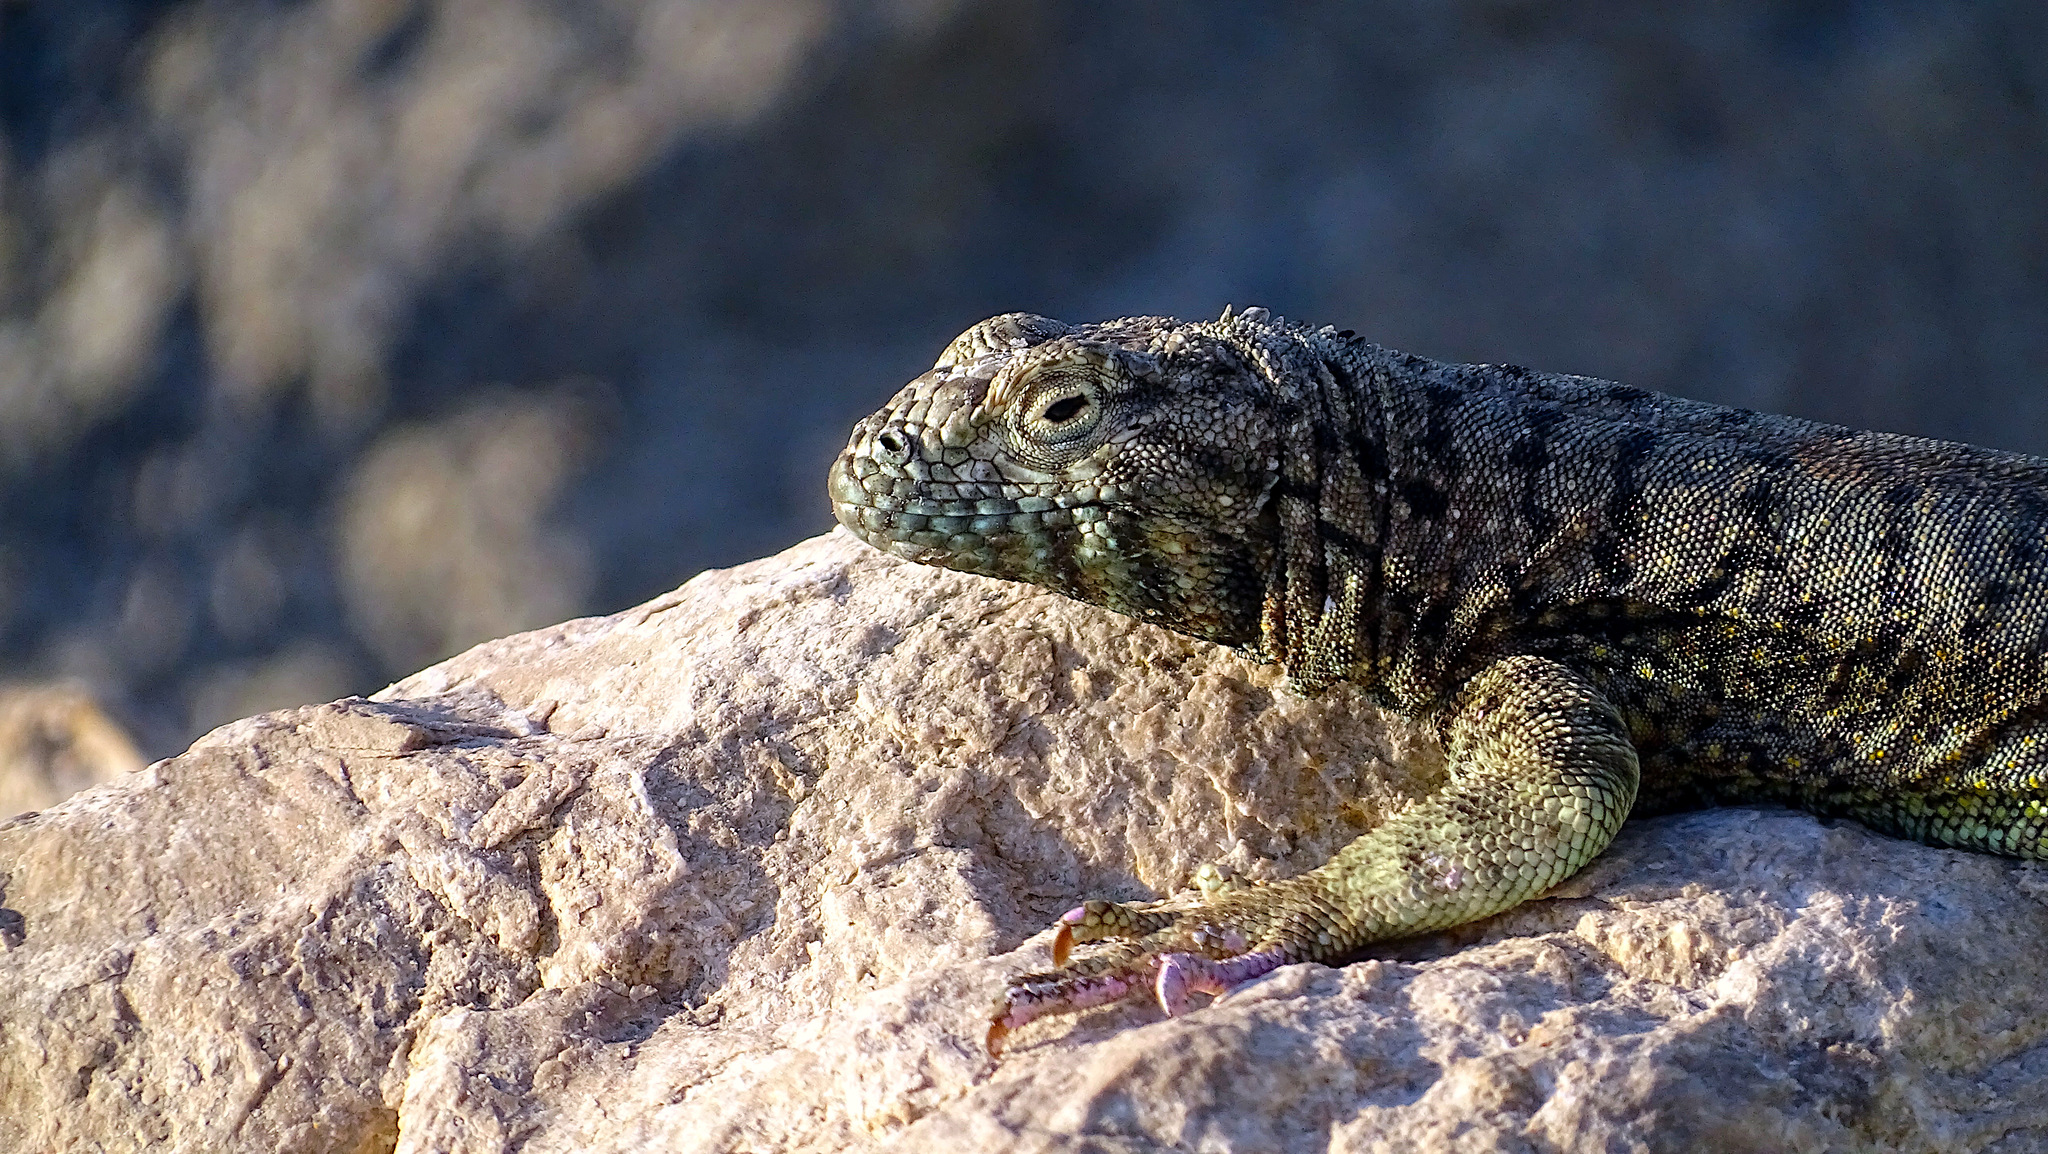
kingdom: Animalia
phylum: Chordata
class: Squamata
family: Tropiduridae
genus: Microlophus
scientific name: Microlophus atacamensis
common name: Atacamen pacific iguana
